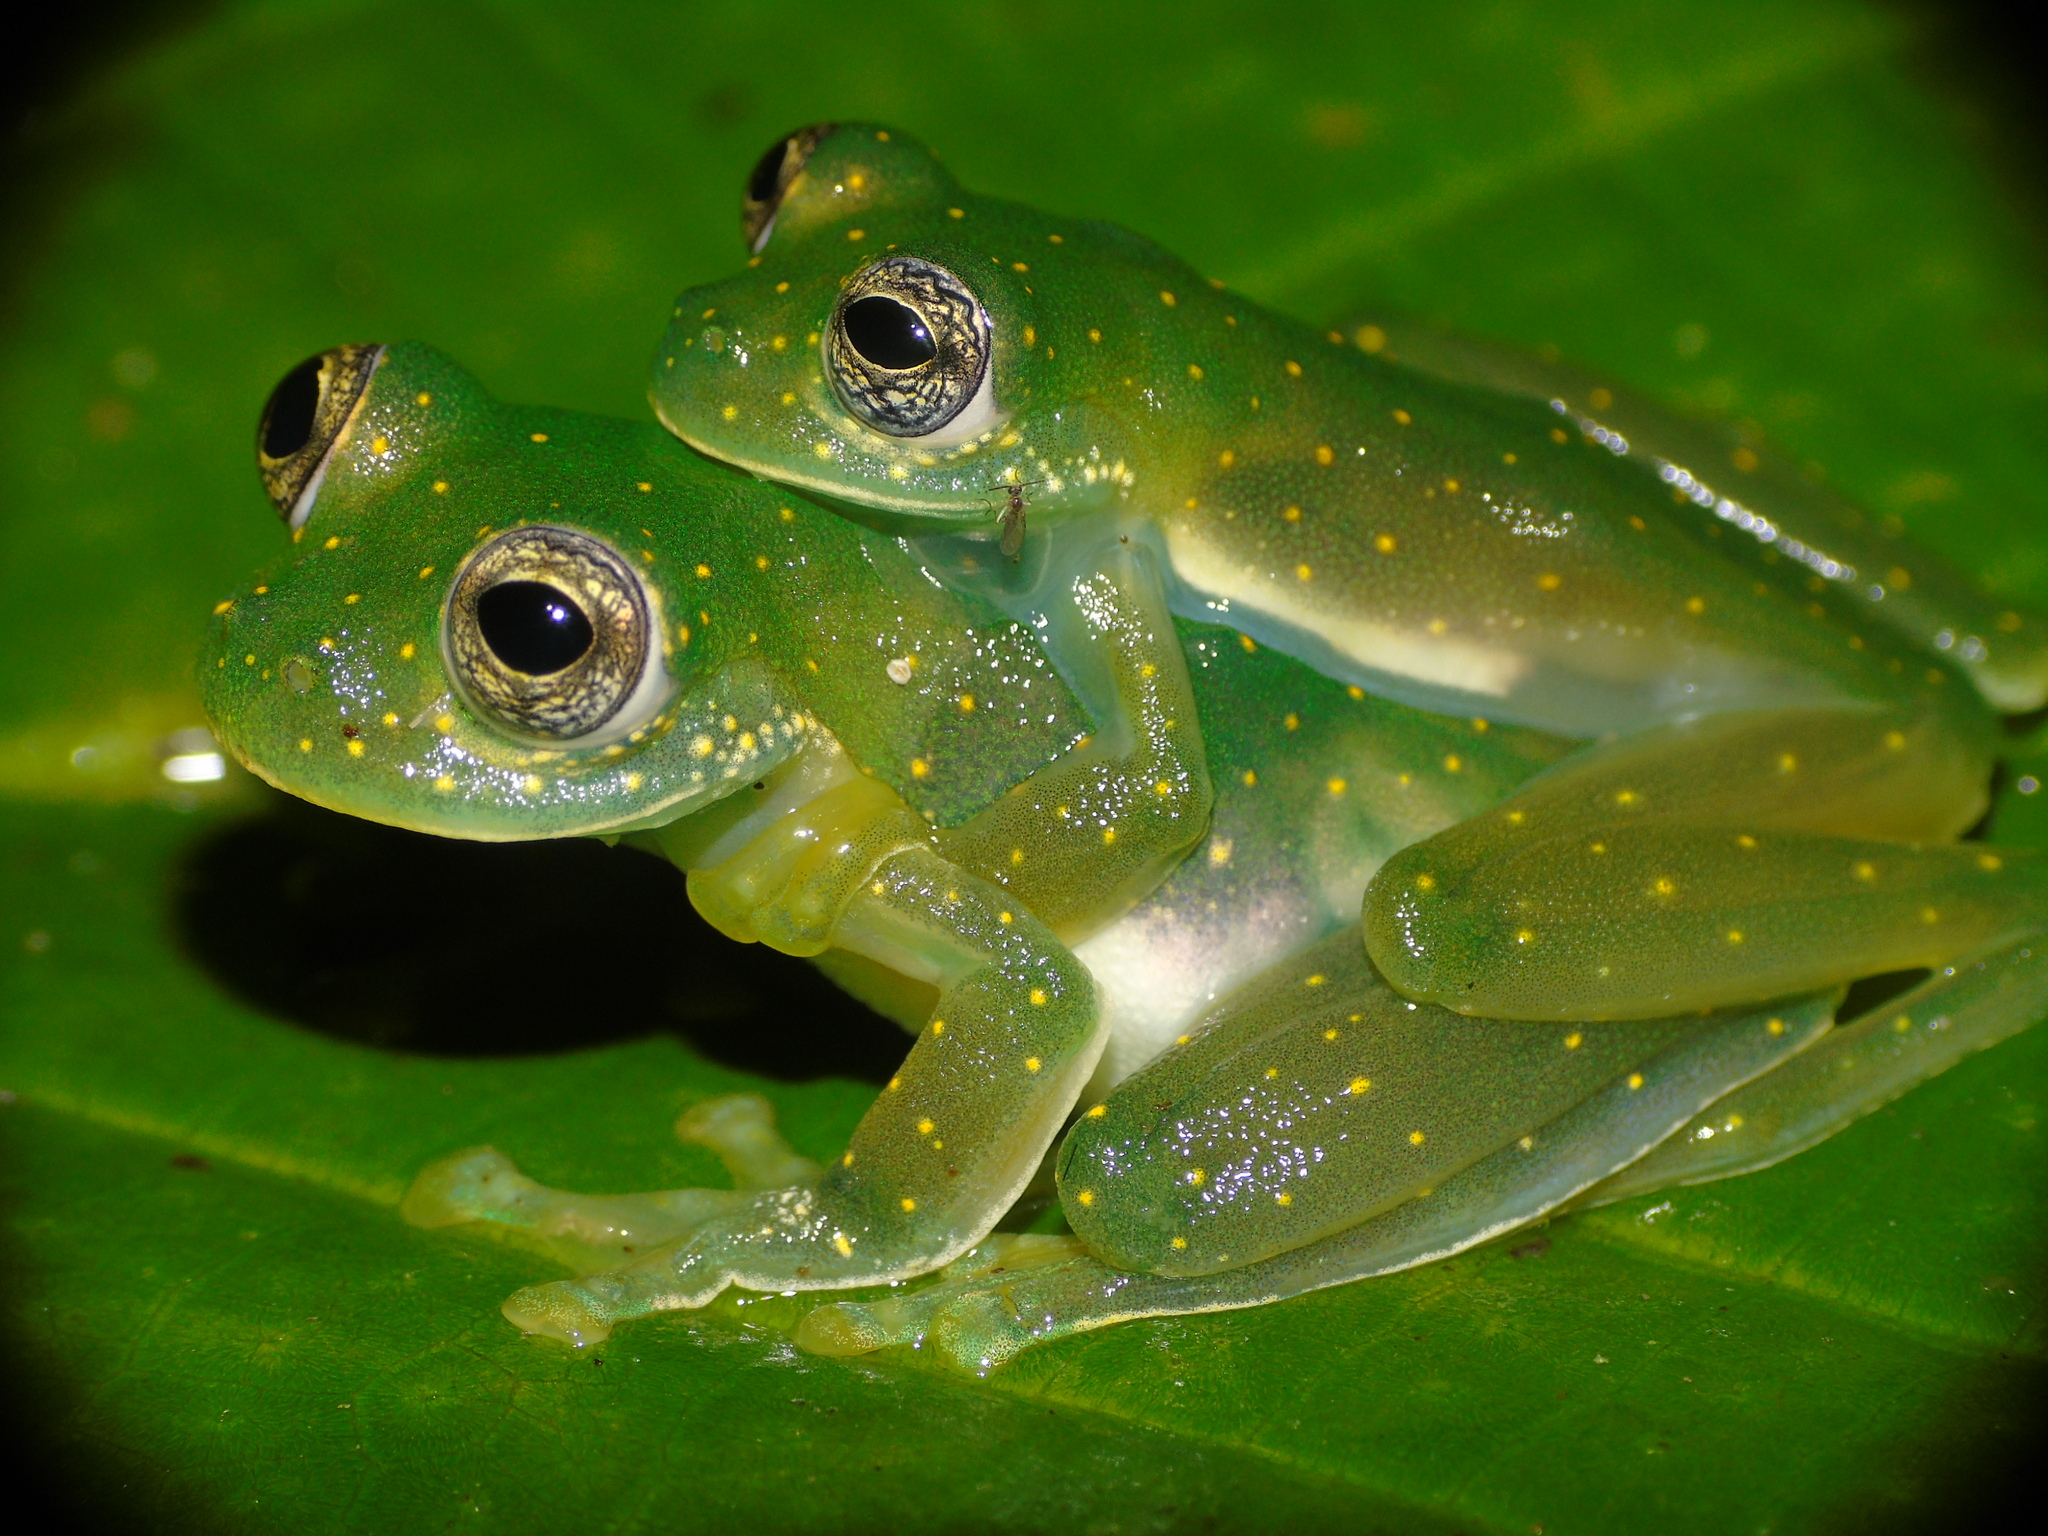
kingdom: Animalia
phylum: Chordata
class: Amphibia
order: Anura
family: Centrolenidae
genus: Sachatamia
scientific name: Sachatamia albomaculata
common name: Rana de cristal de cascada
